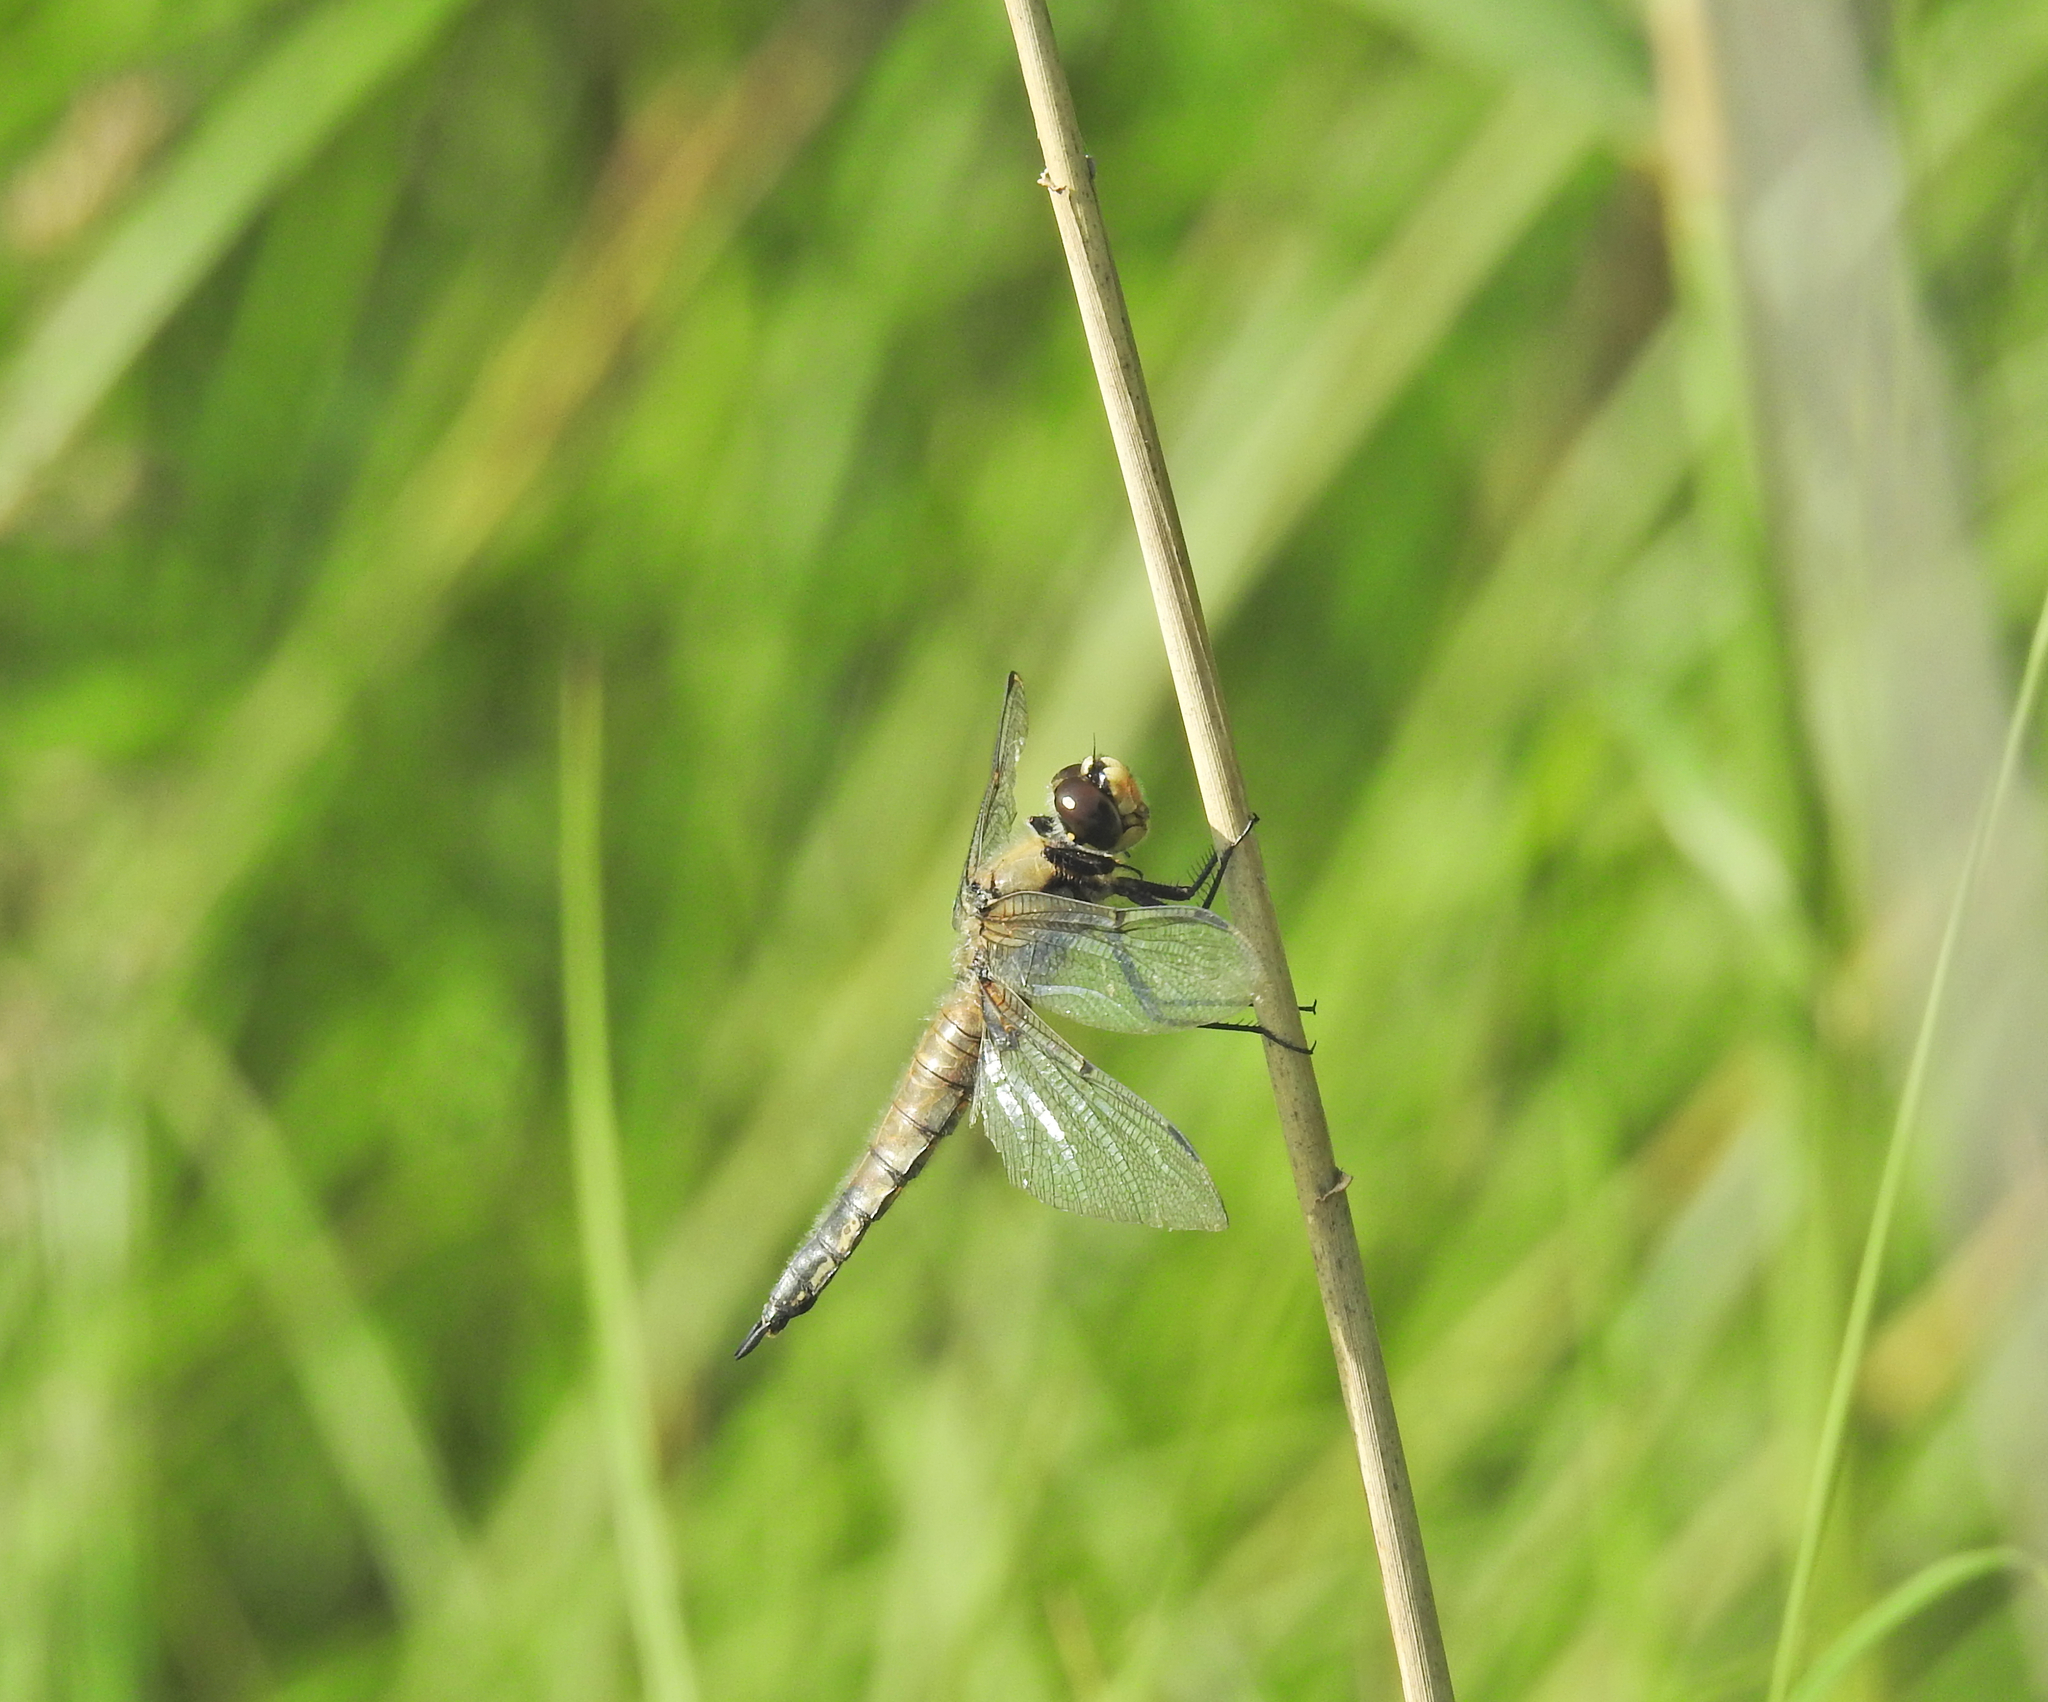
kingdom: Animalia
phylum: Arthropoda
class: Insecta
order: Odonata
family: Libellulidae
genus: Libellula
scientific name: Libellula quadrimaculata
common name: Four-spotted chaser
